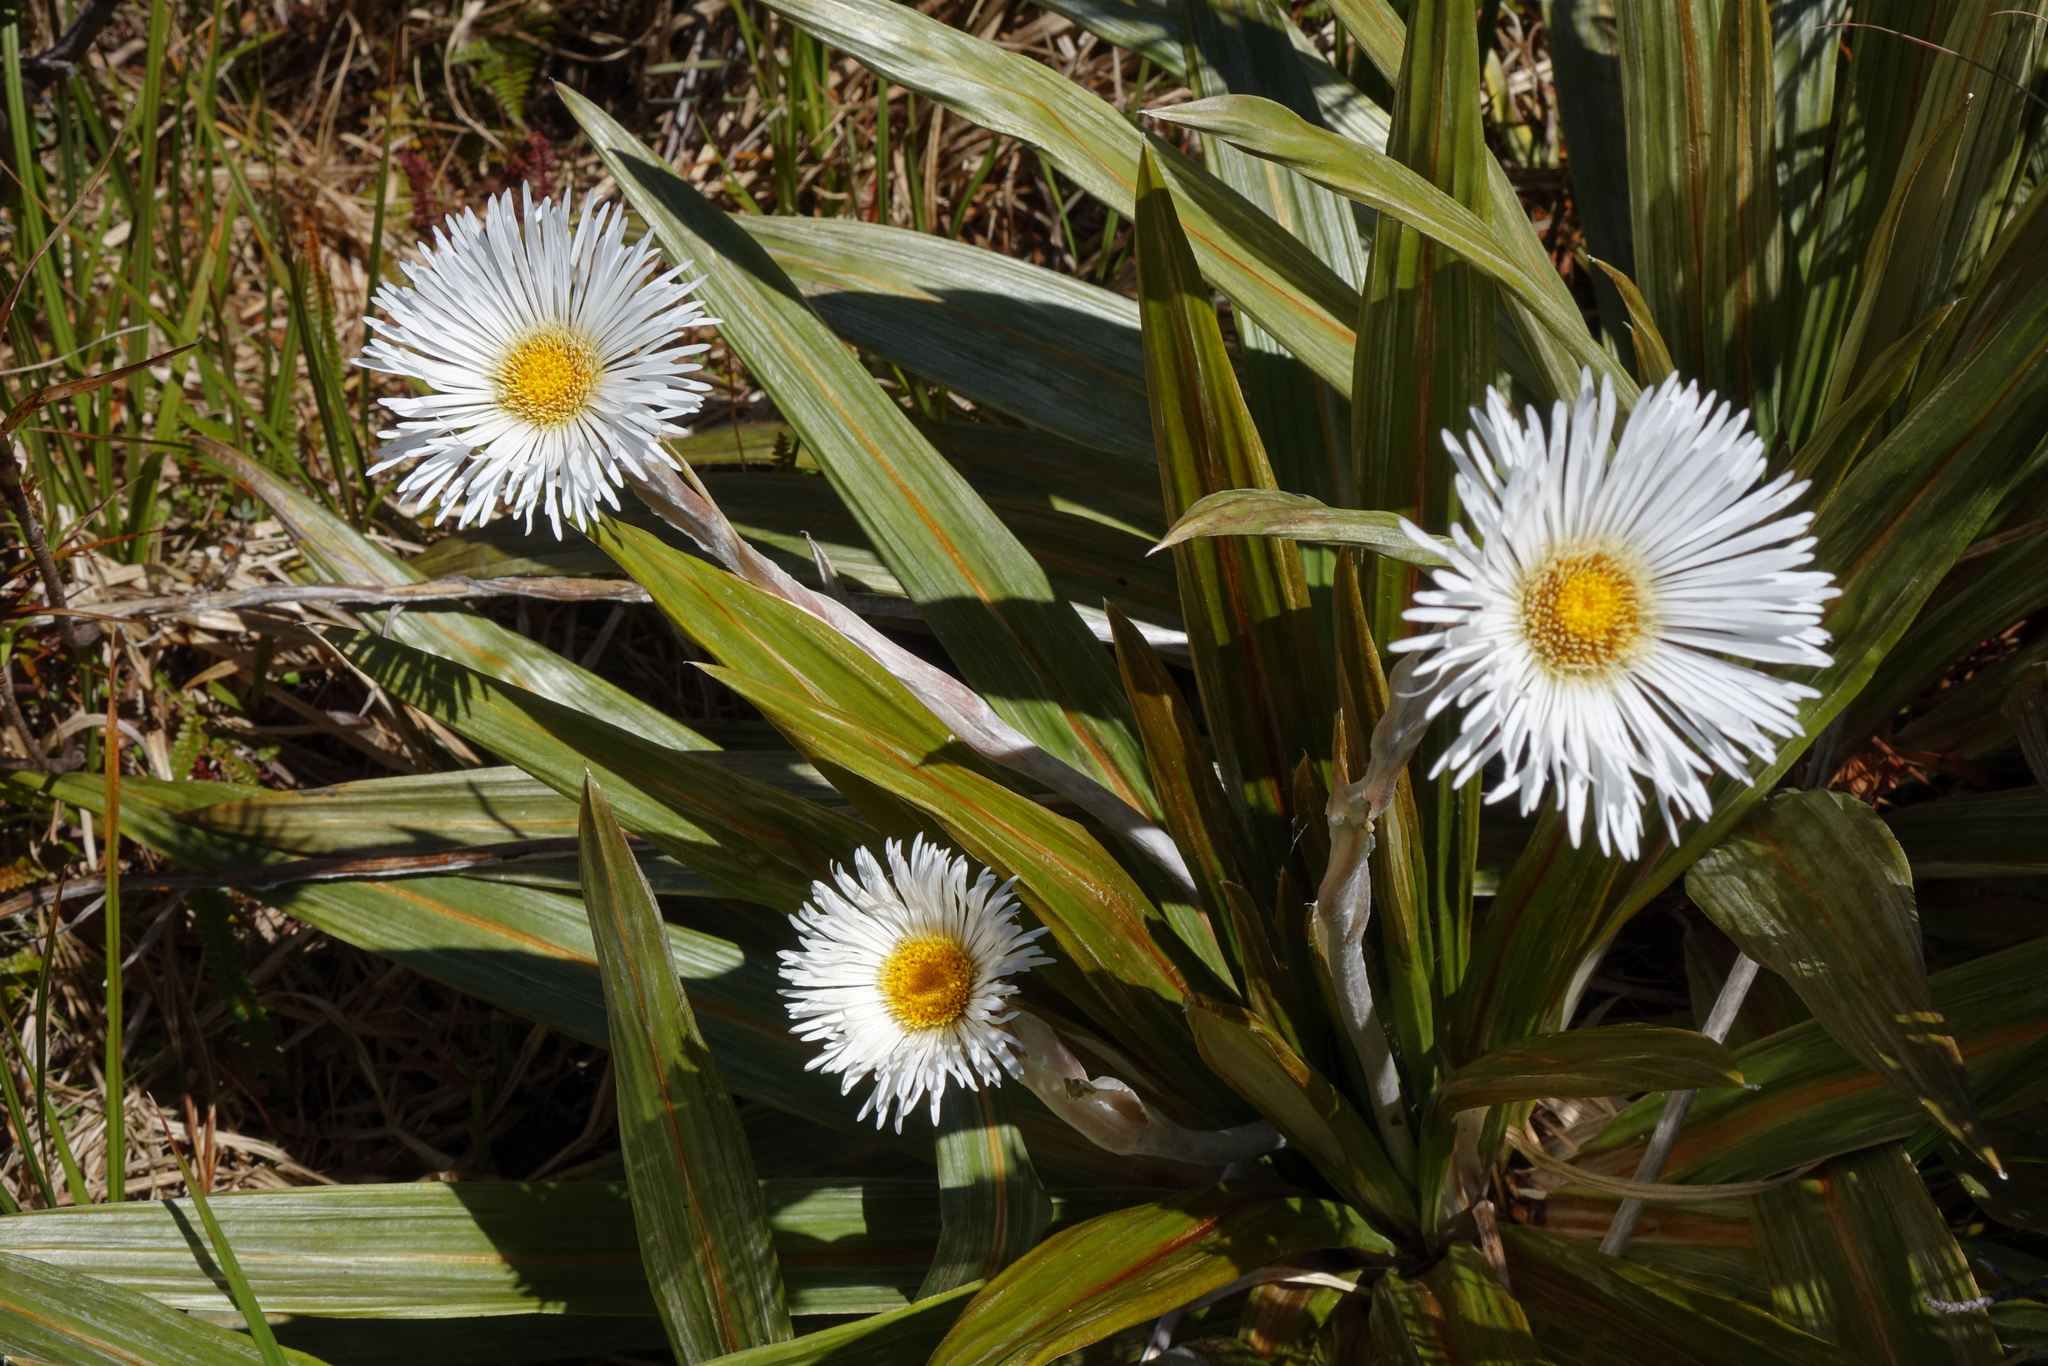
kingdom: Plantae
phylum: Tracheophyta
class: Magnoliopsida
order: Asterales
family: Asteraceae
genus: Celmisia
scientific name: Celmisia coriacea
